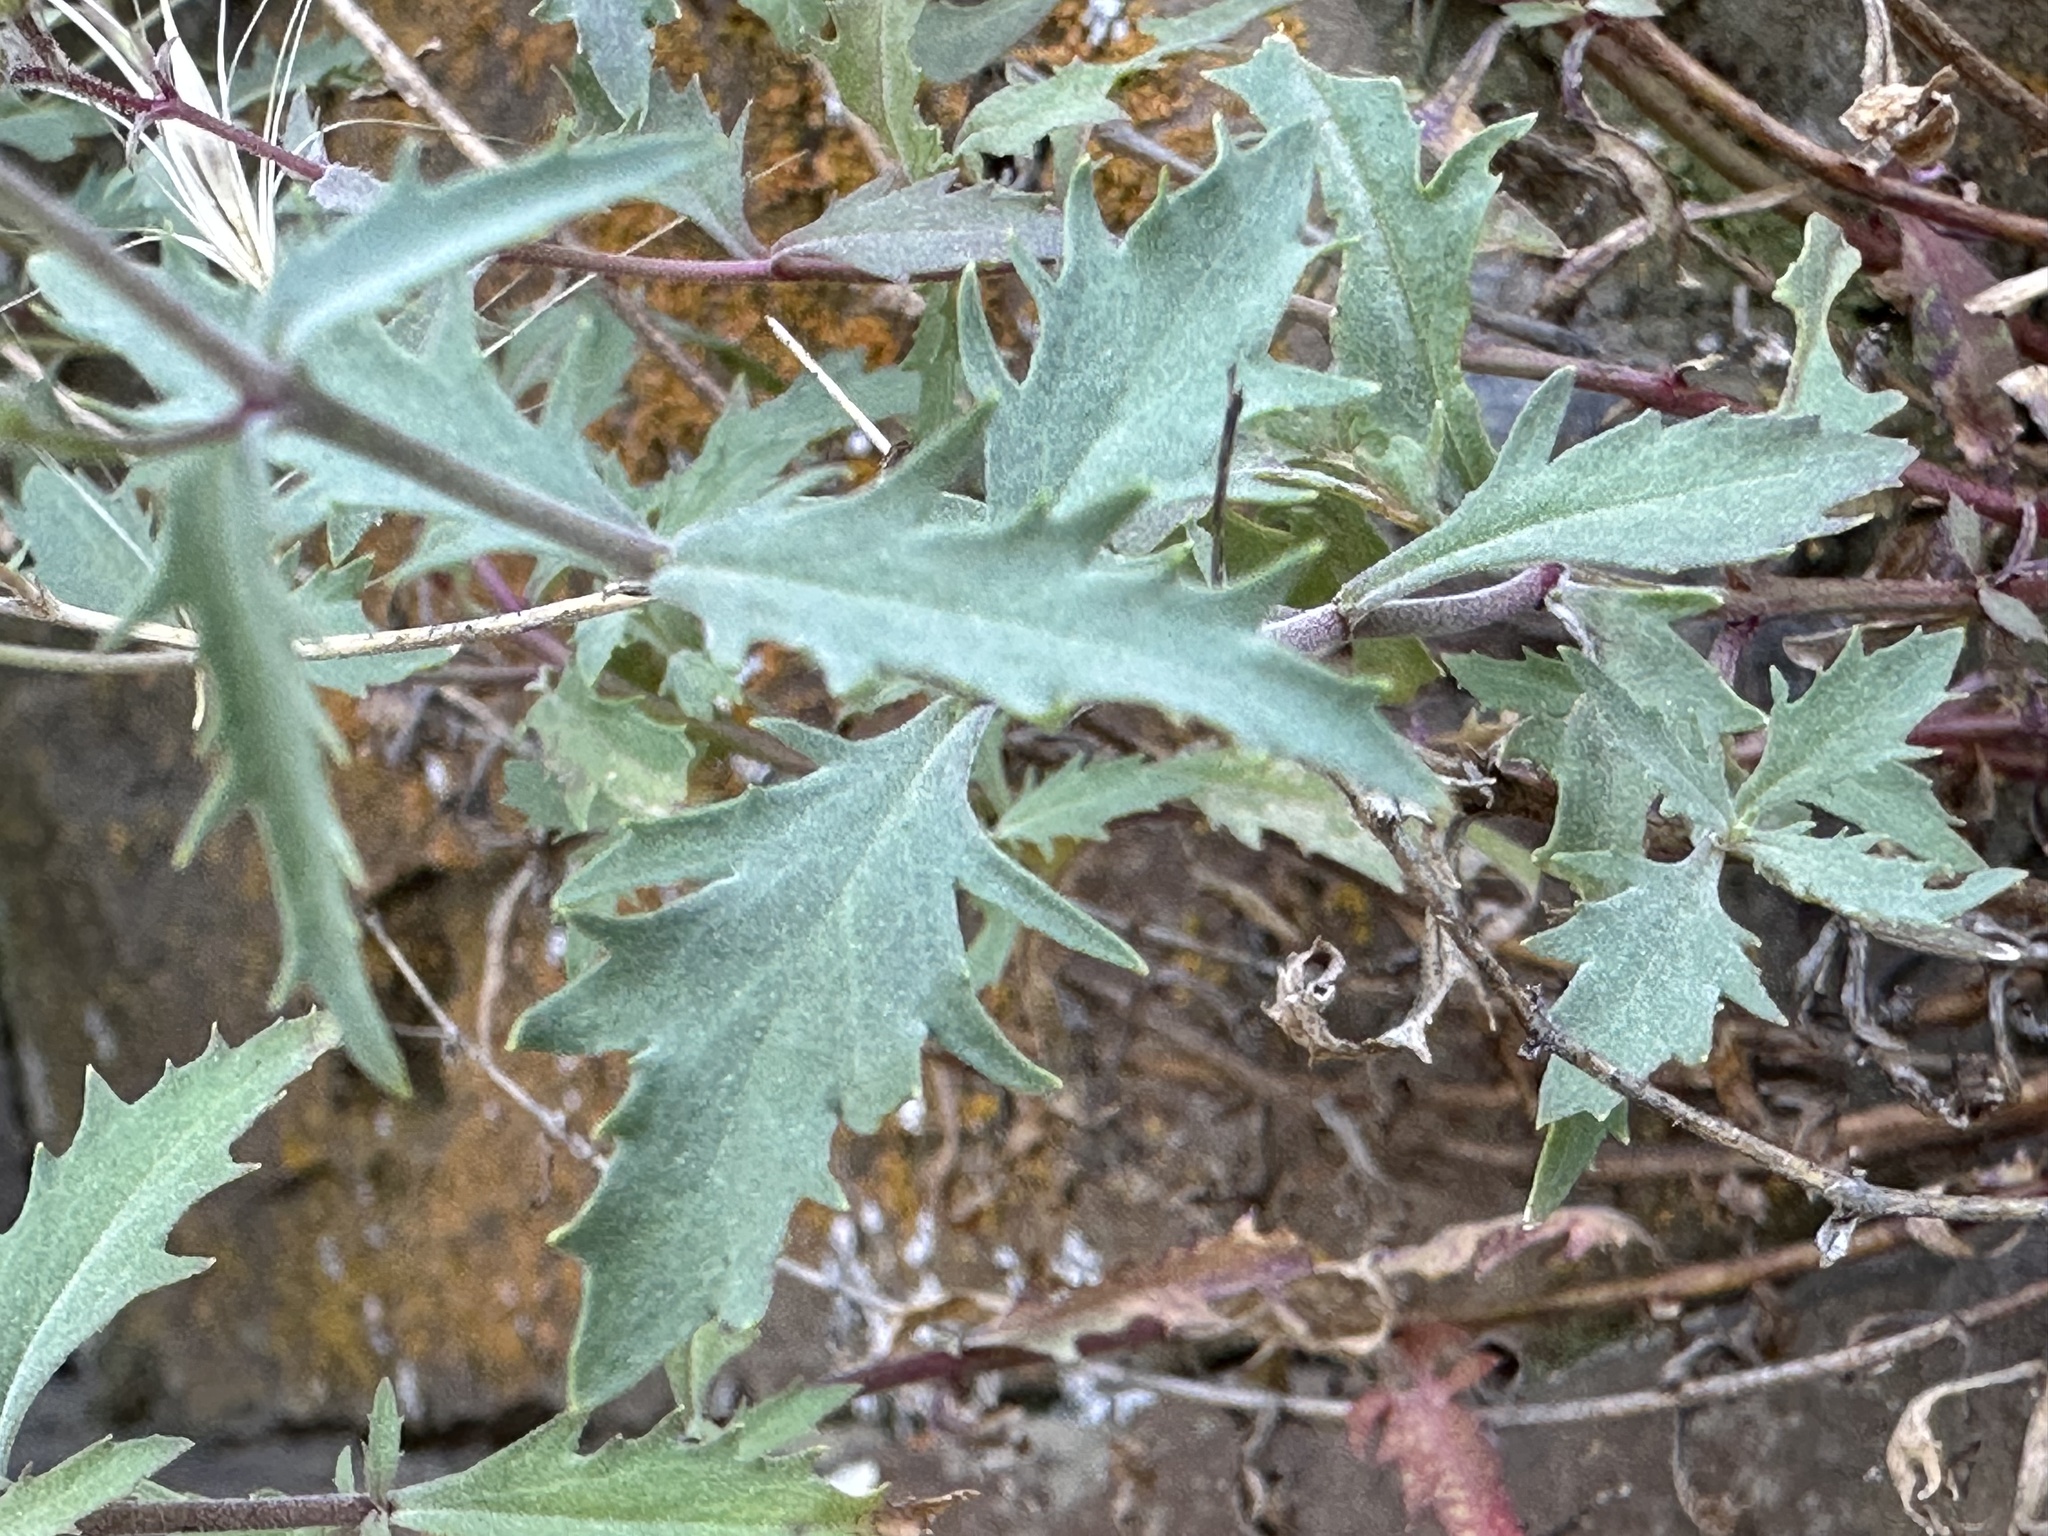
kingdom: Plantae
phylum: Tracheophyta
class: Magnoliopsida
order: Lamiales
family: Plantaginaceae
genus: Penstemon
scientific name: Penstemon richardsonii
